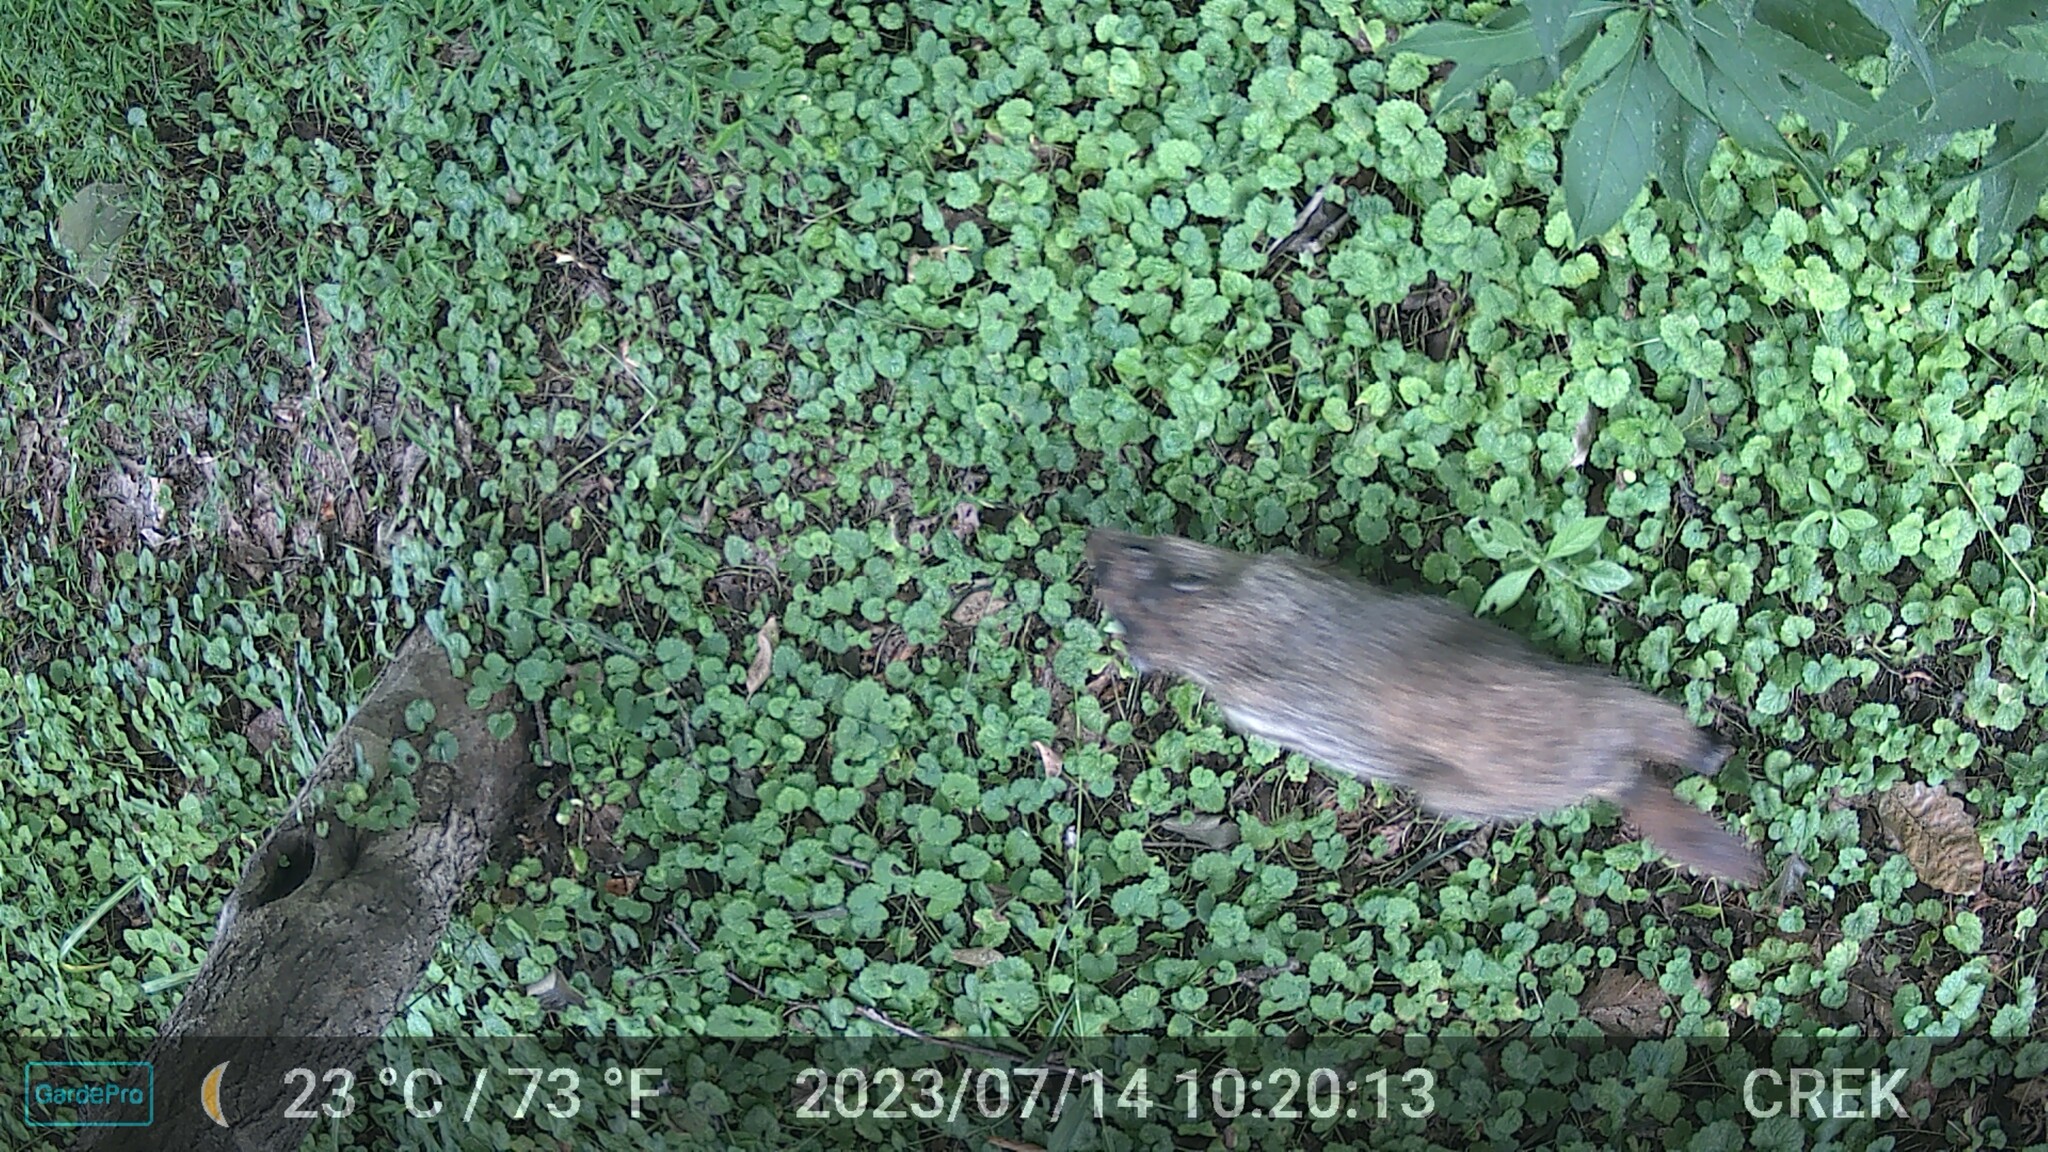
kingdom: Animalia
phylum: Chordata
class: Mammalia
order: Rodentia
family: Sciuridae
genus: Marmota
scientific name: Marmota monax
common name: Groundhog
